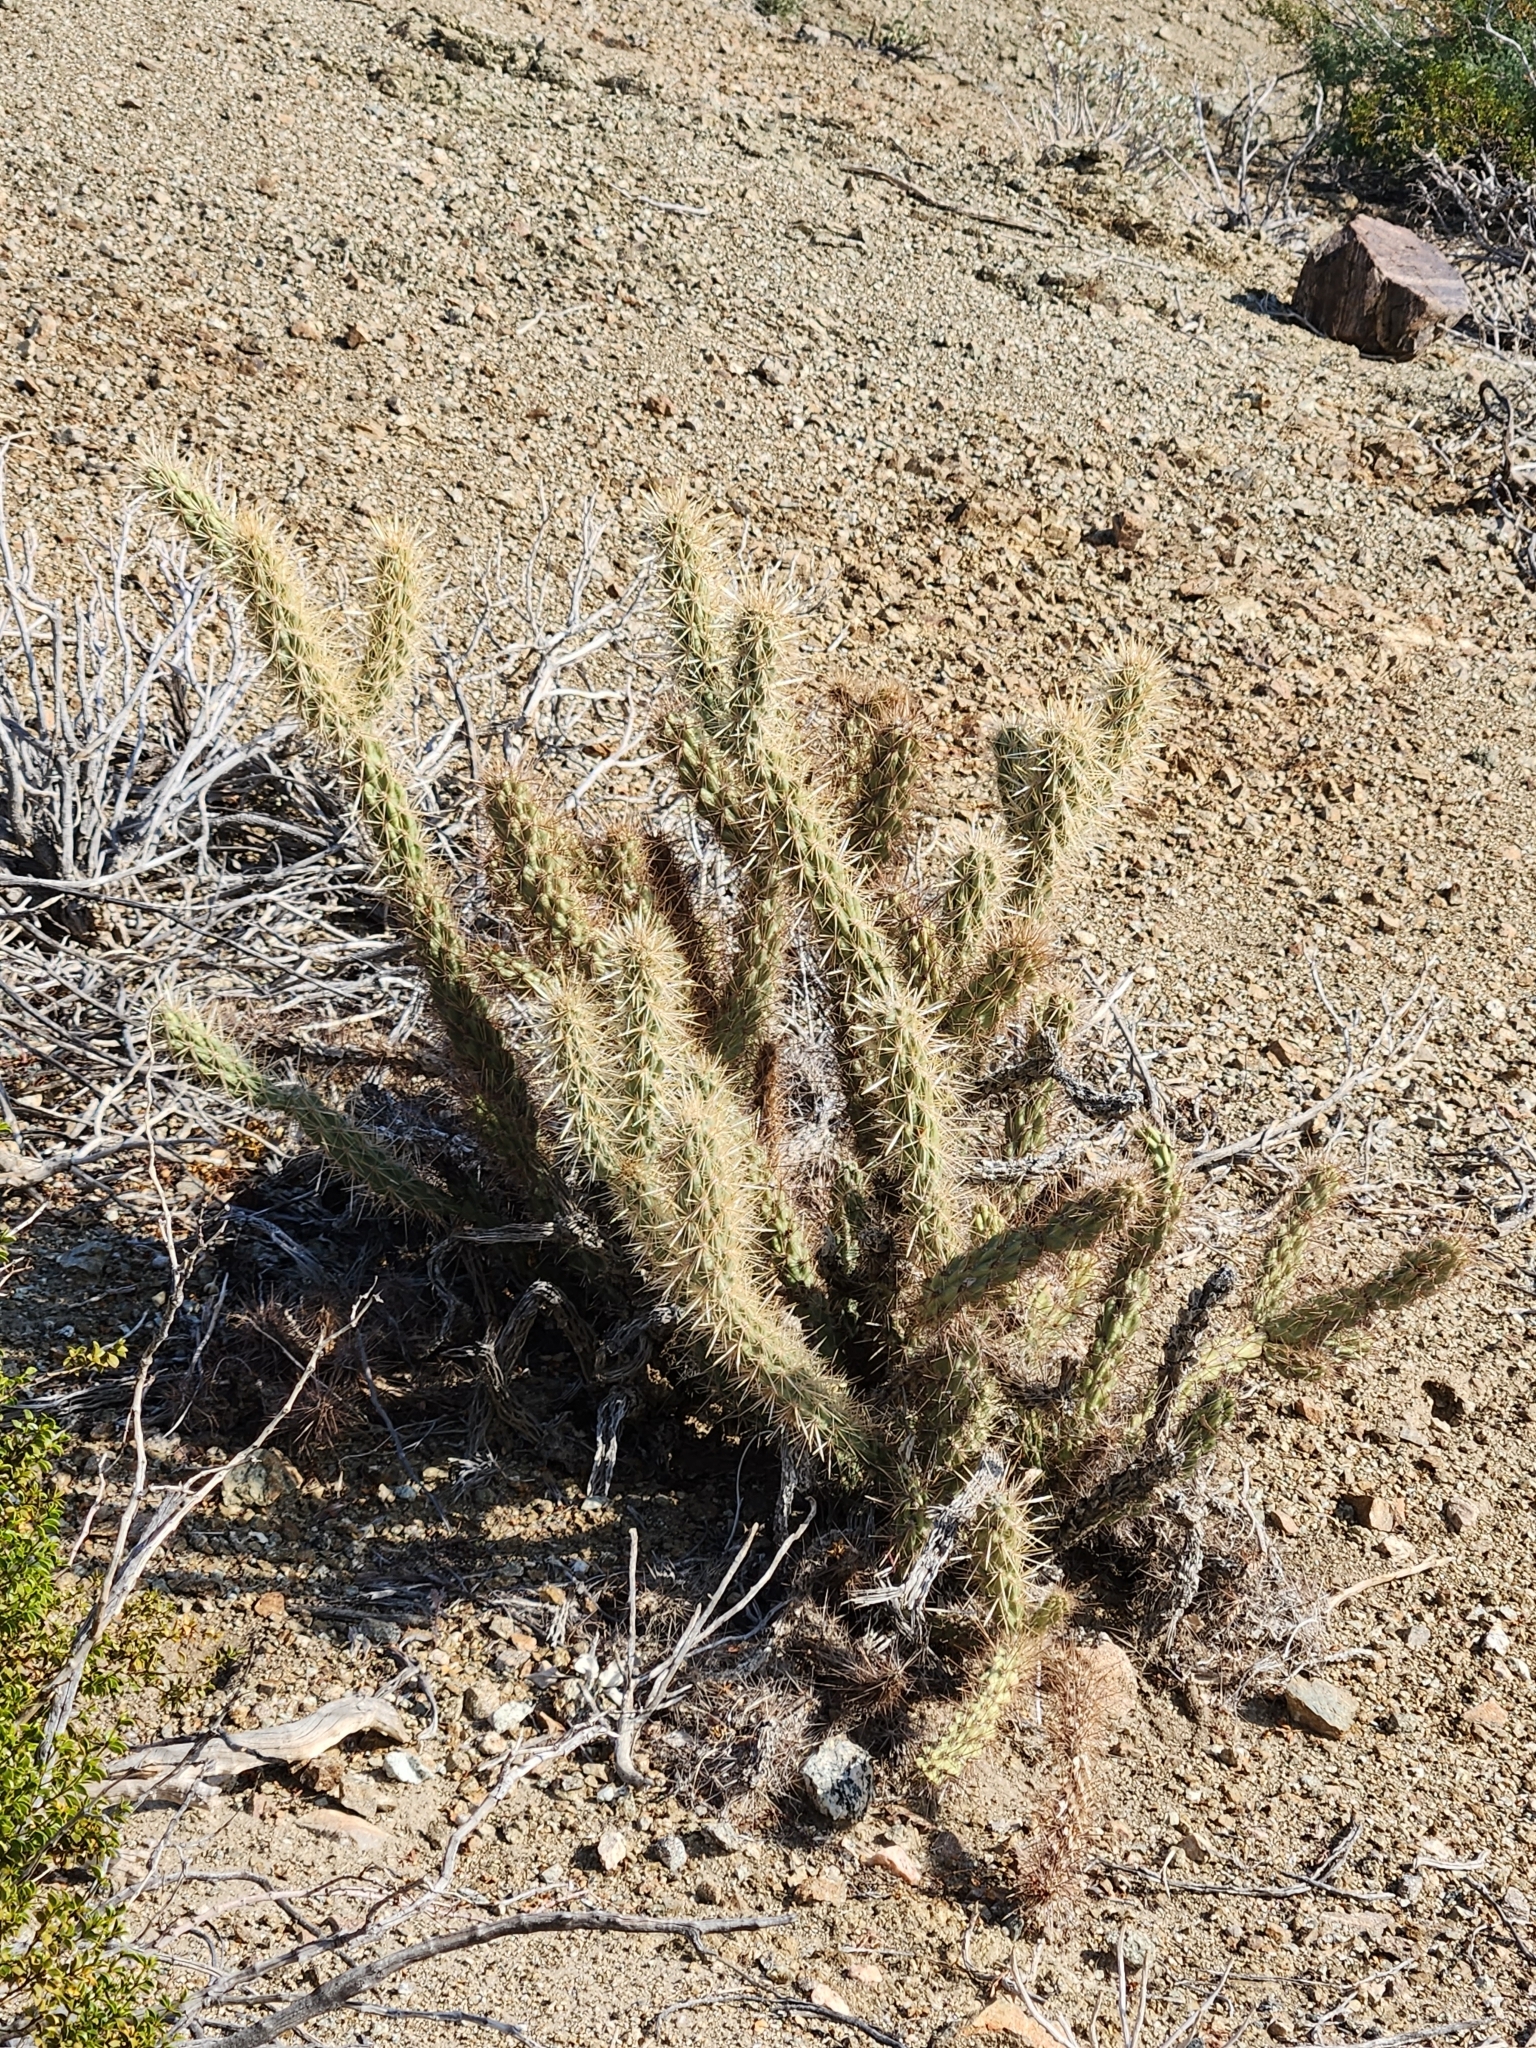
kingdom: Plantae
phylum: Tracheophyta
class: Magnoliopsida
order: Caryophyllales
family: Cactaceae
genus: Cylindropuntia
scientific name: Cylindropuntia ganderi
